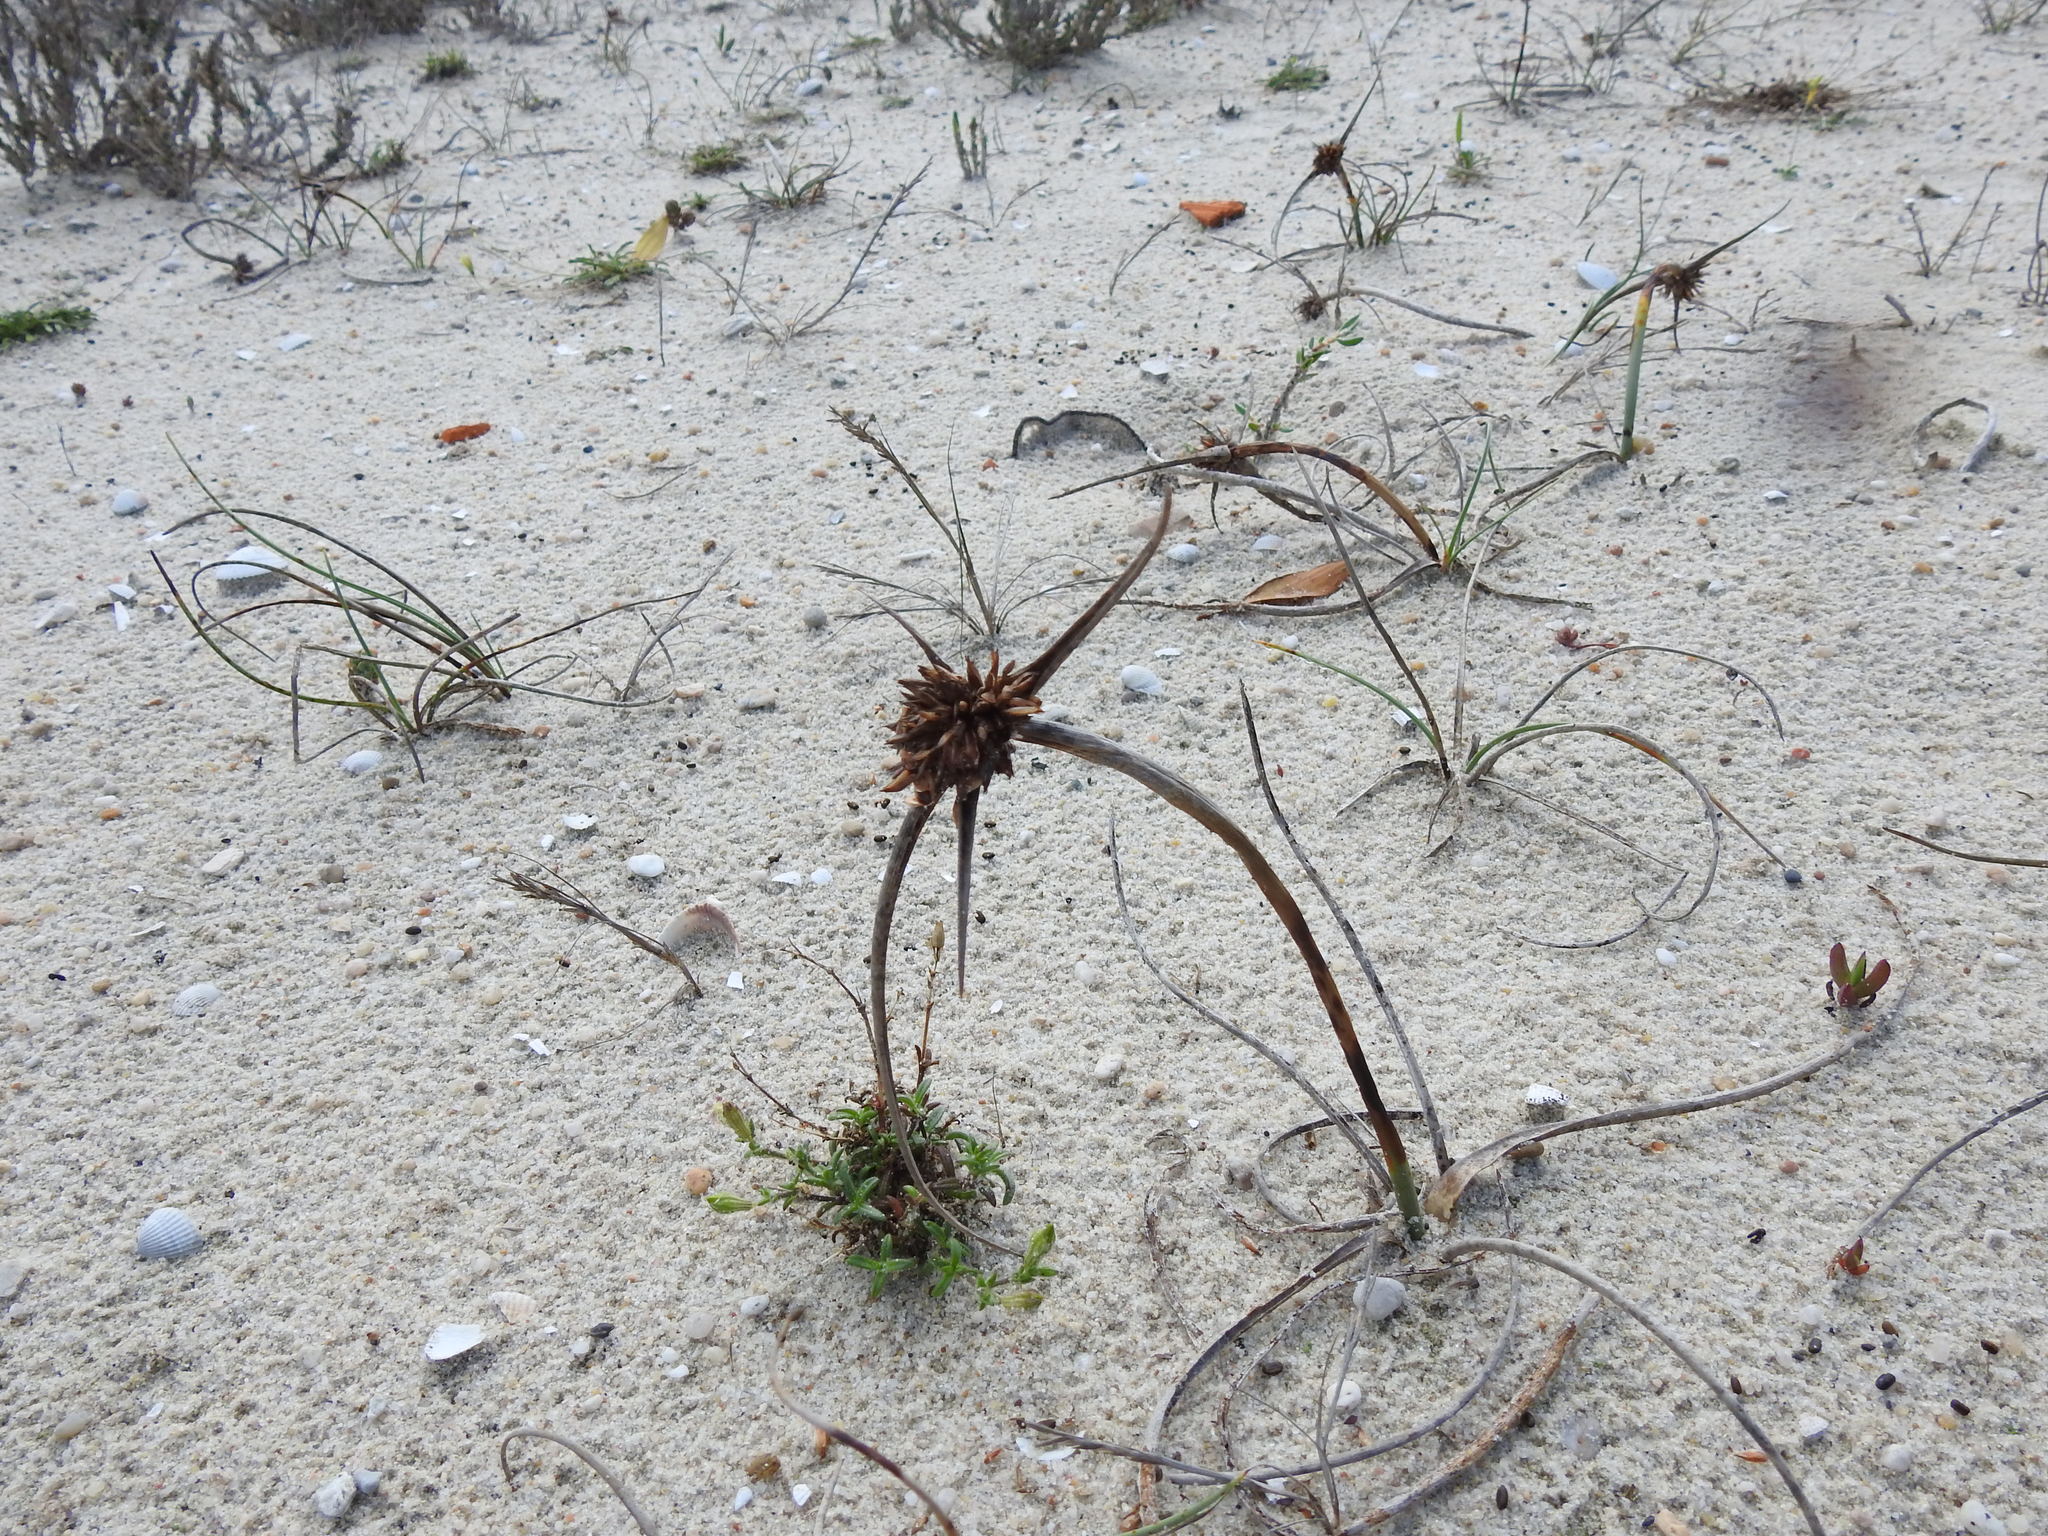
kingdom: Plantae
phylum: Tracheophyta
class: Liliopsida
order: Poales
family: Cyperaceae
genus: Cyperus
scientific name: Cyperus capitatus
